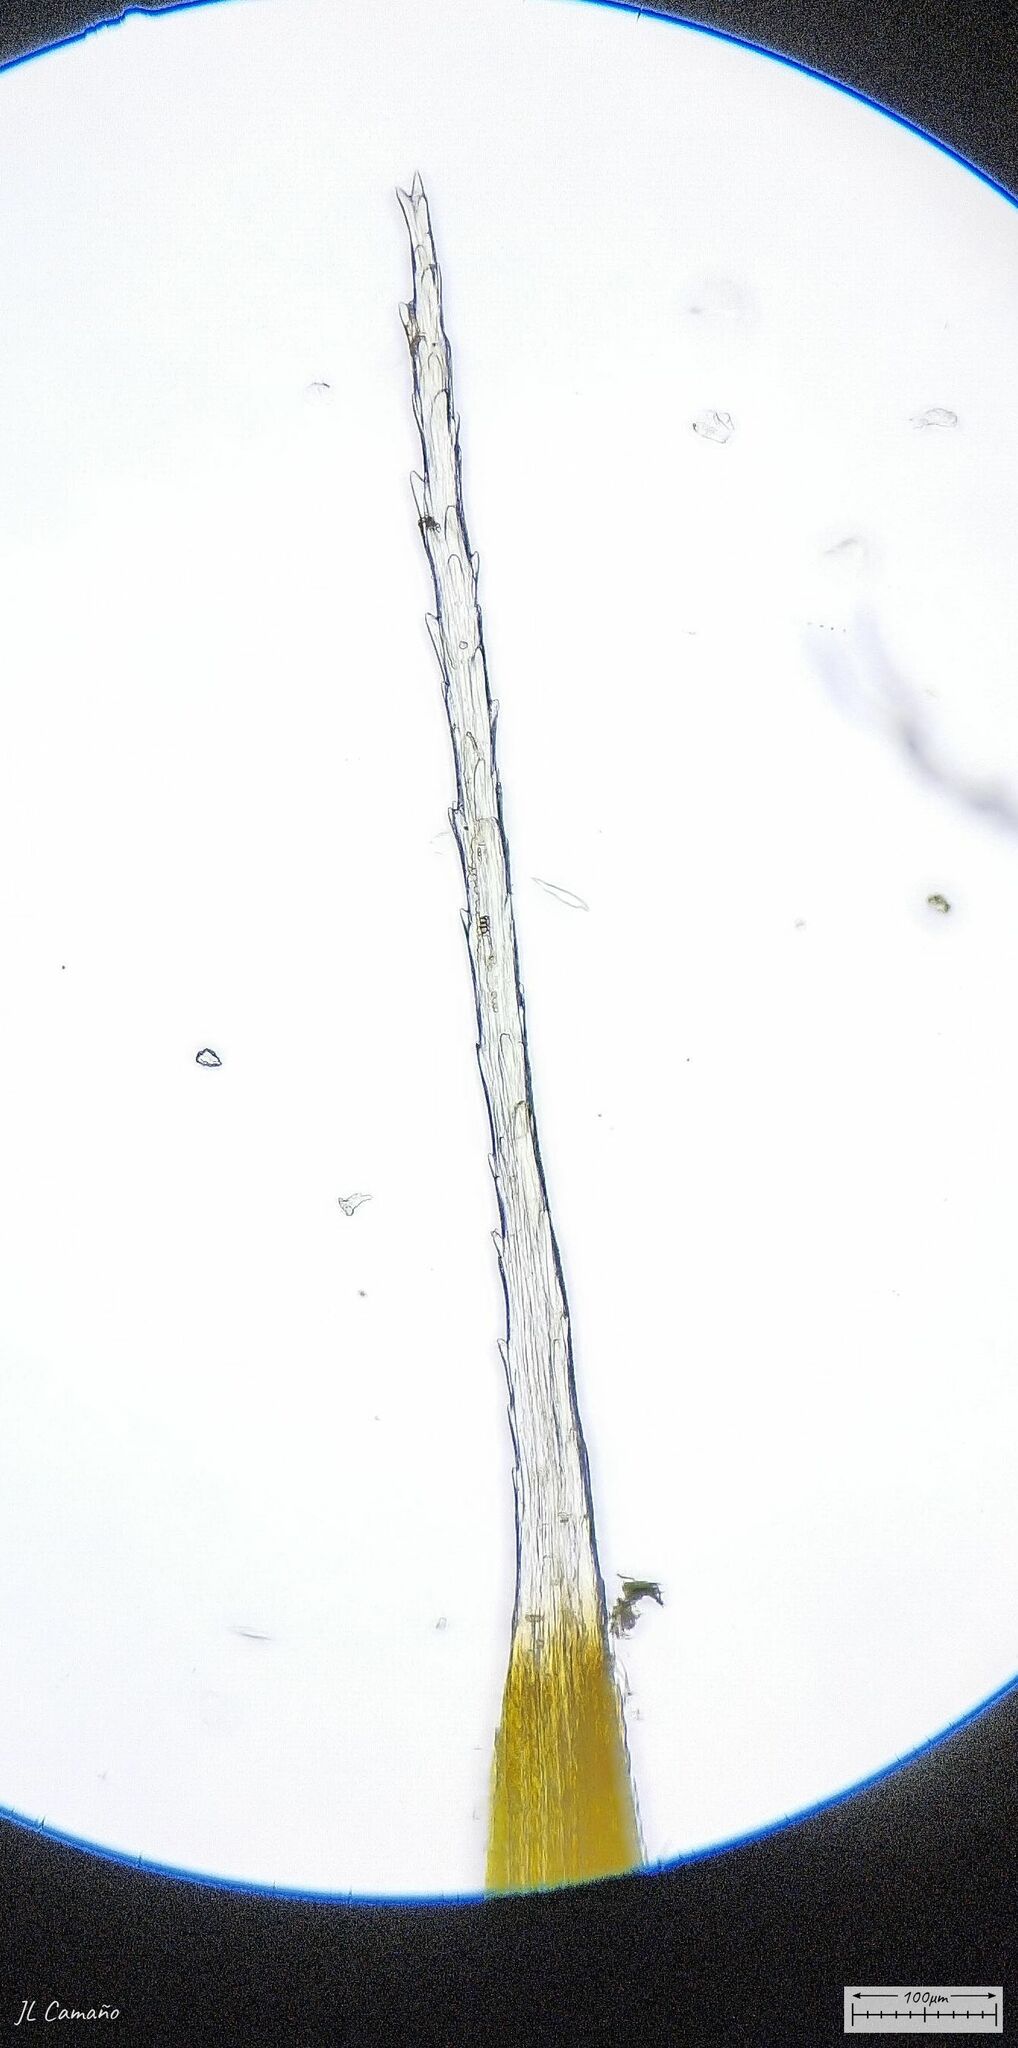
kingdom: Plantae
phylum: Bryophyta
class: Bryopsida
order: Dicranales
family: Leucobryaceae
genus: Campylopus
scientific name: Campylopus introflexus
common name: Heath star moss
